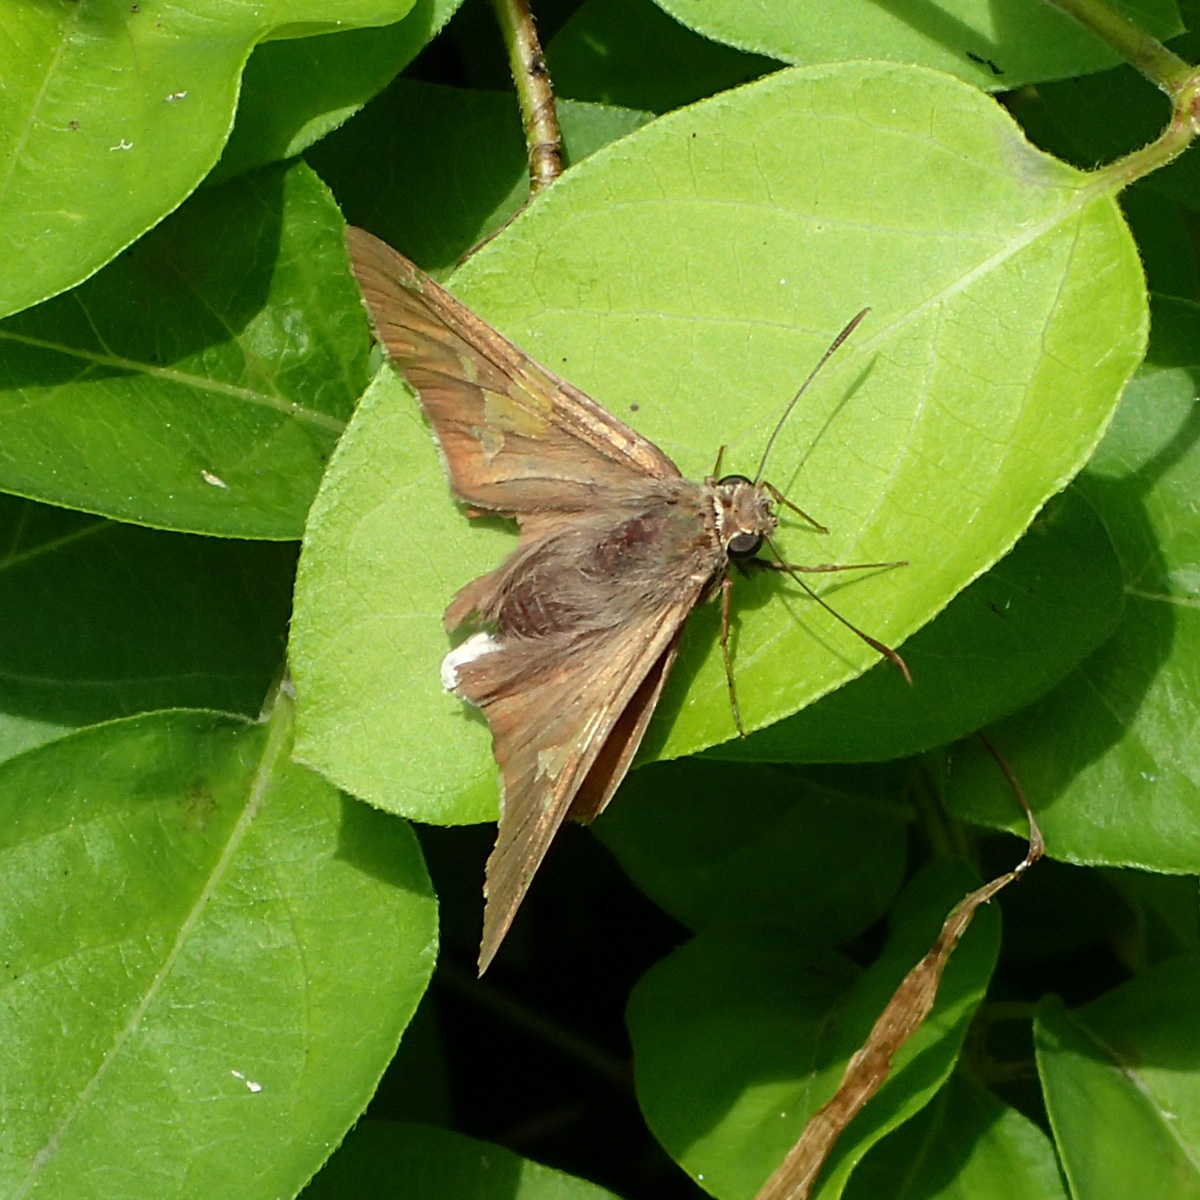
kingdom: Animalia
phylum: Arthropoda
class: Insecta
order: Lepidoptera
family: Hesperiidae
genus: Epargyreus
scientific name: Epargyreus clarus
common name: Silver-spotted skipper
